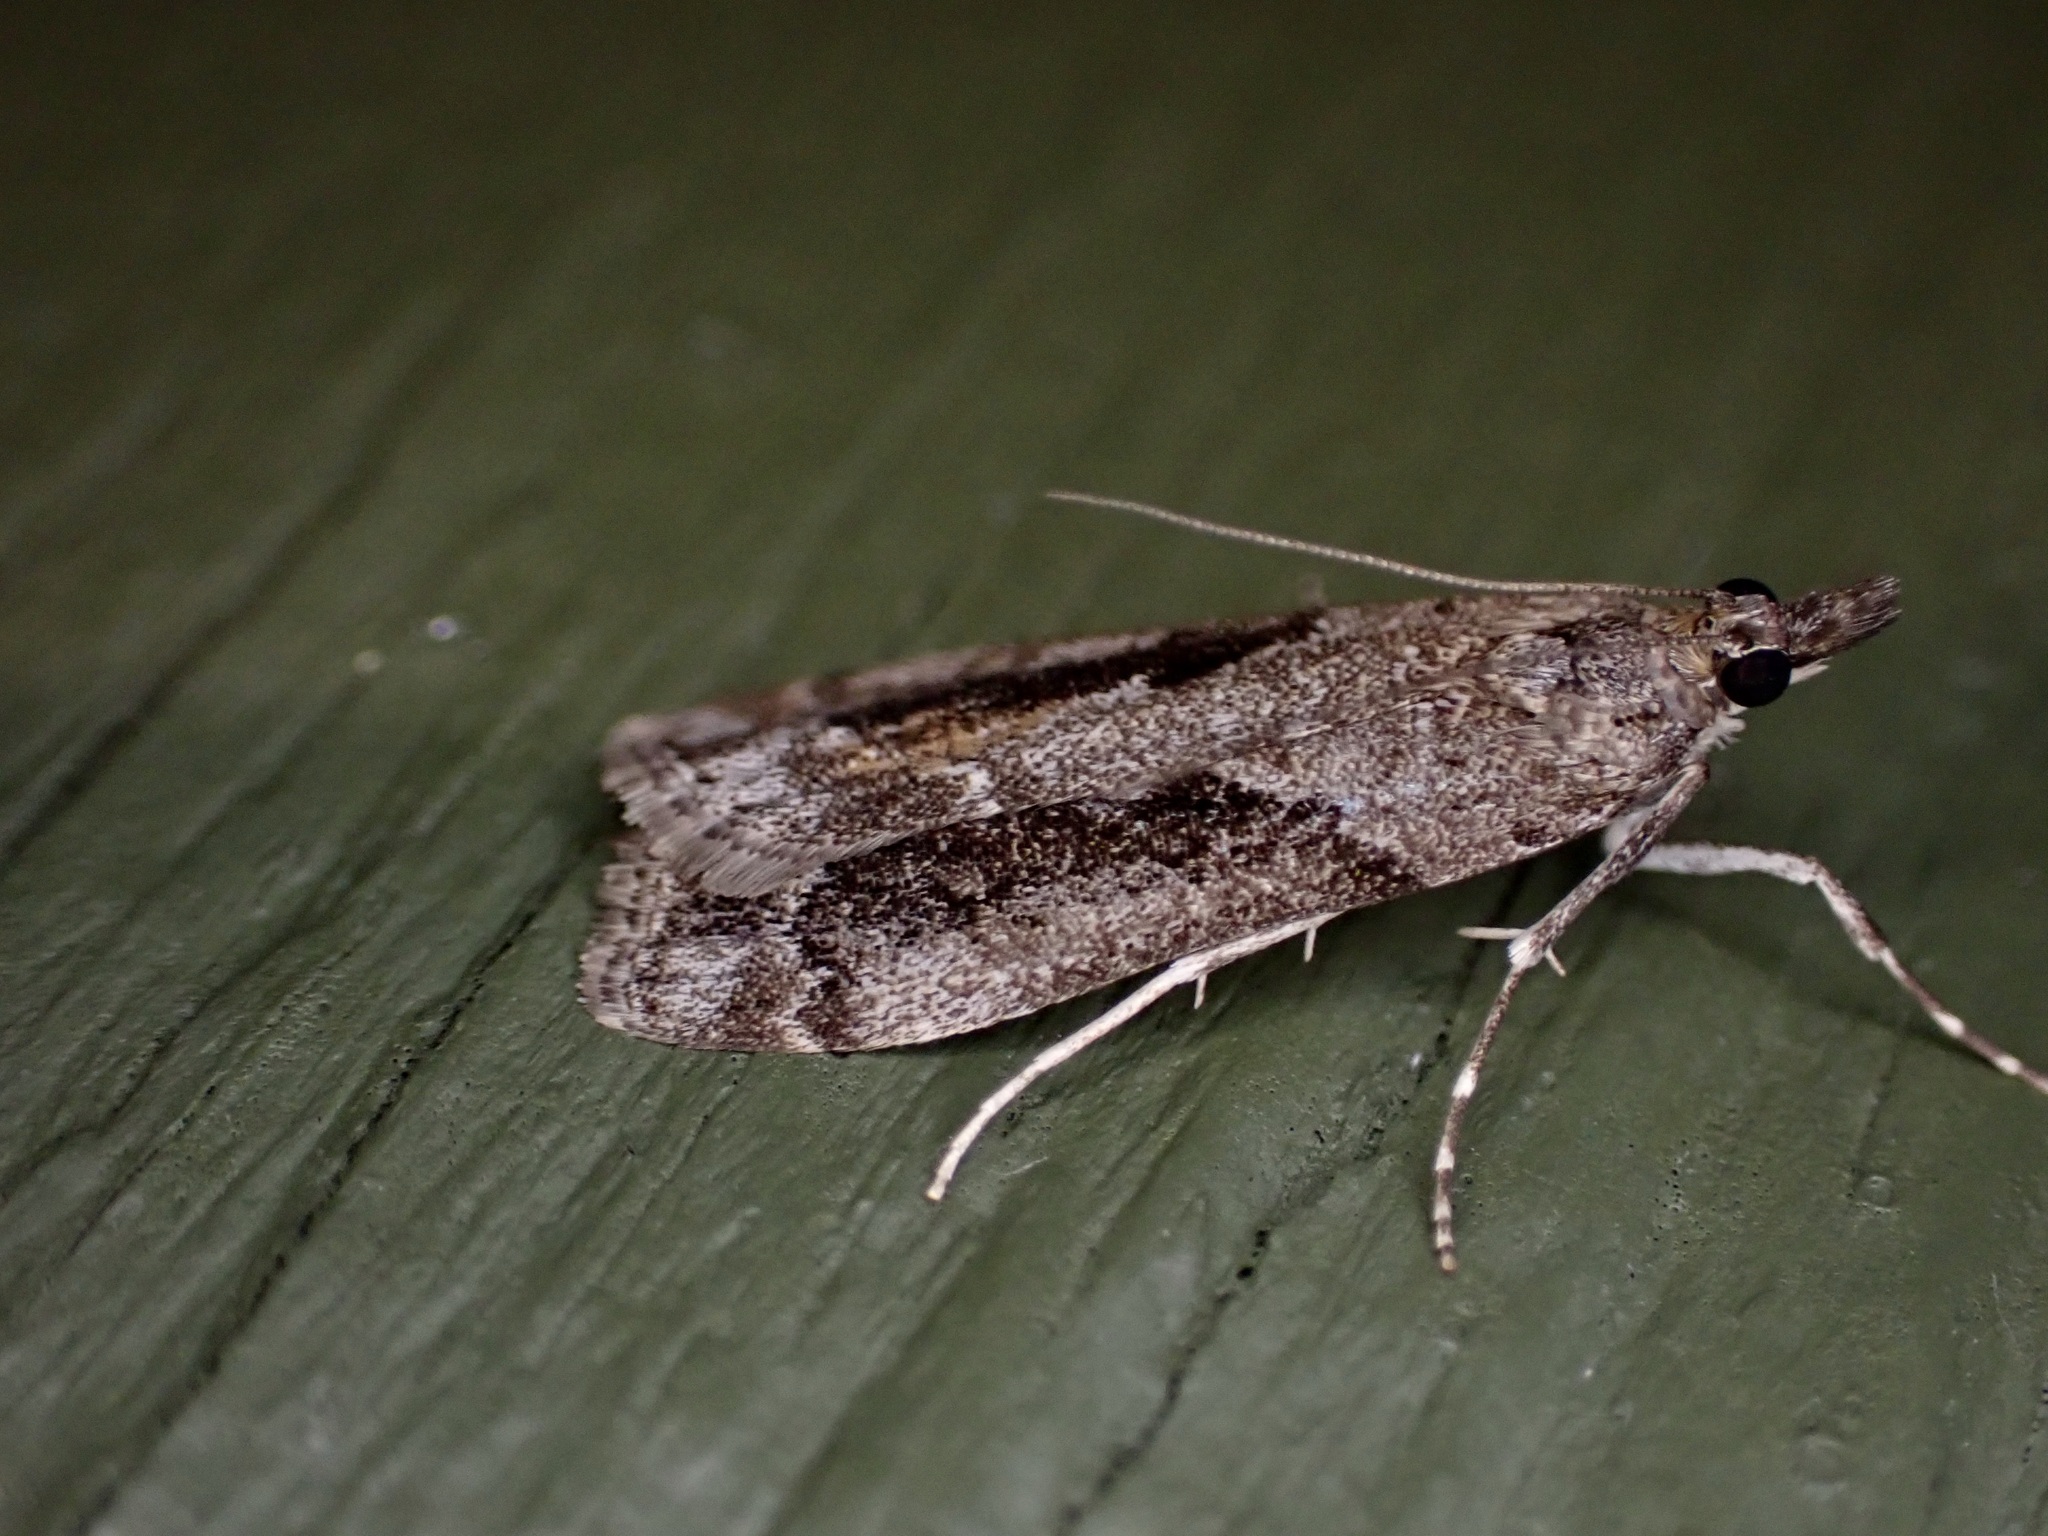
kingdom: Animalia
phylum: Arthropoda
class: Insecta
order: Lepidoptera
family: Crambidae
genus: Eudonia
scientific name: Eudonia submarginalis
